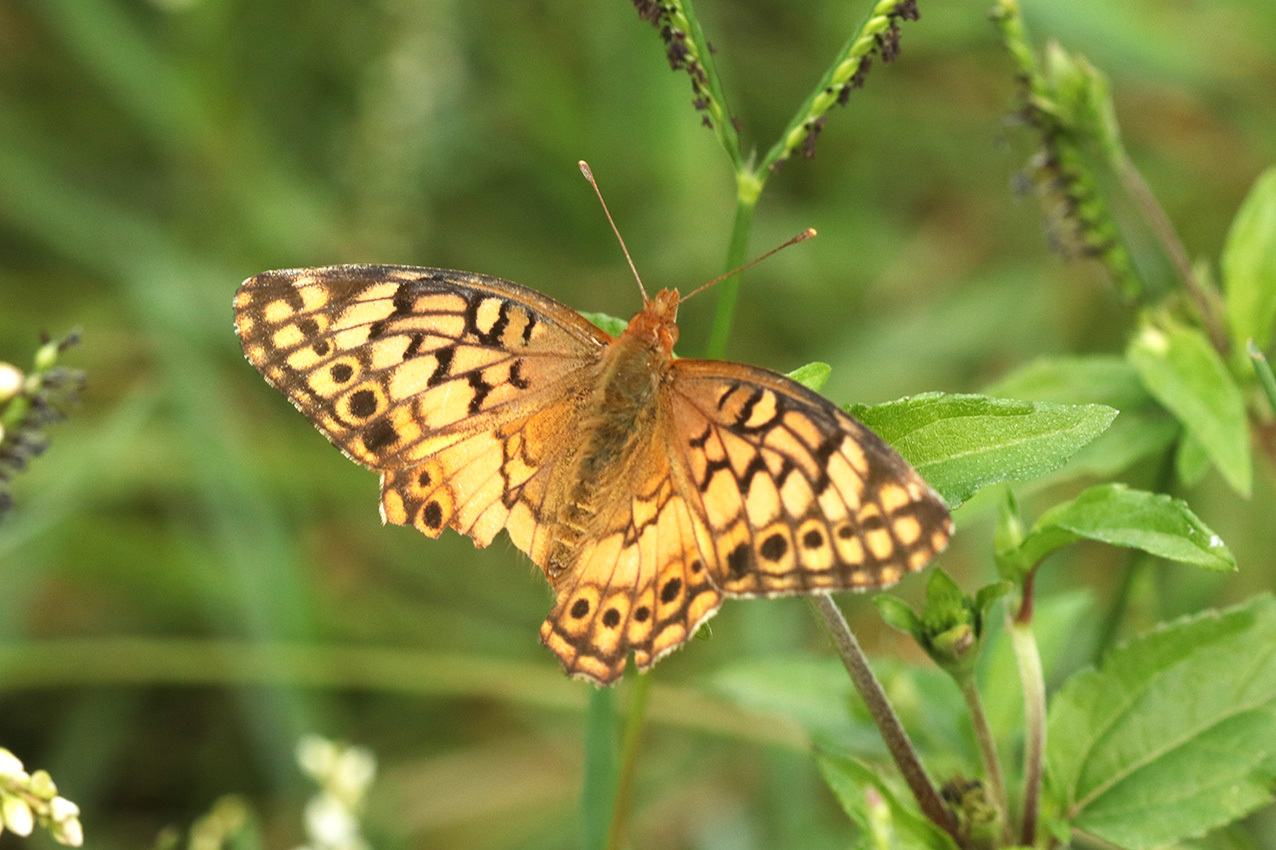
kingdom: Animalia
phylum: Arthropoda
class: Insecta
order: Lepidoptera
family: Nymphalidae
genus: Euptoieta
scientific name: Euptoieta hortensia
